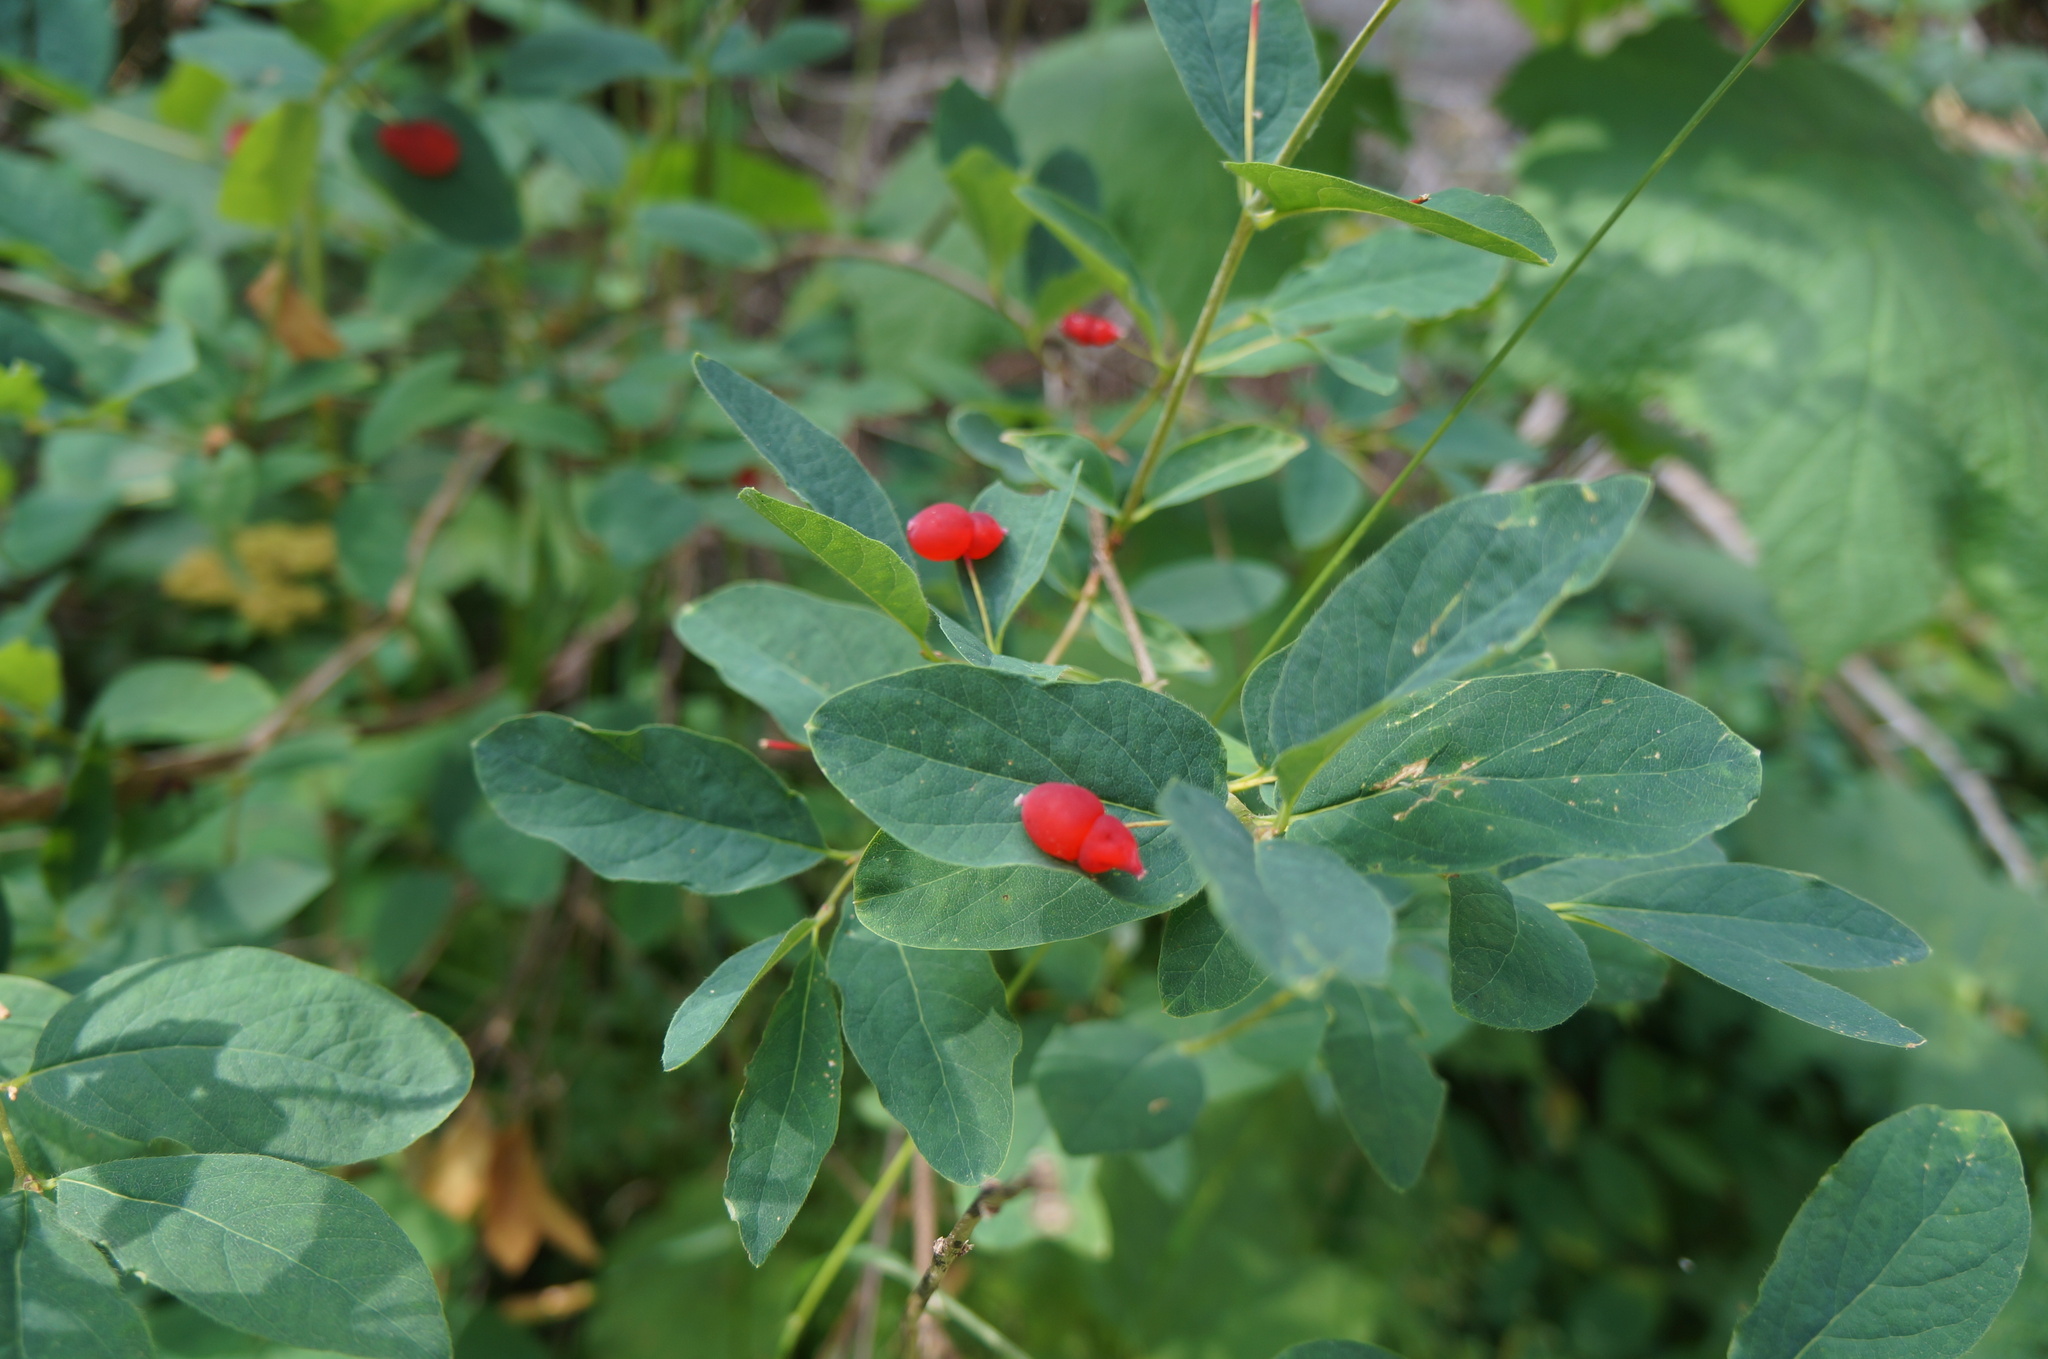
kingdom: Plantae
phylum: Tracheophyta
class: Magnoliopsida
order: Dipsacales
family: Caprifoliaceae
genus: Lonicera
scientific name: Lonicera utahensis
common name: Utah honeysuckle
